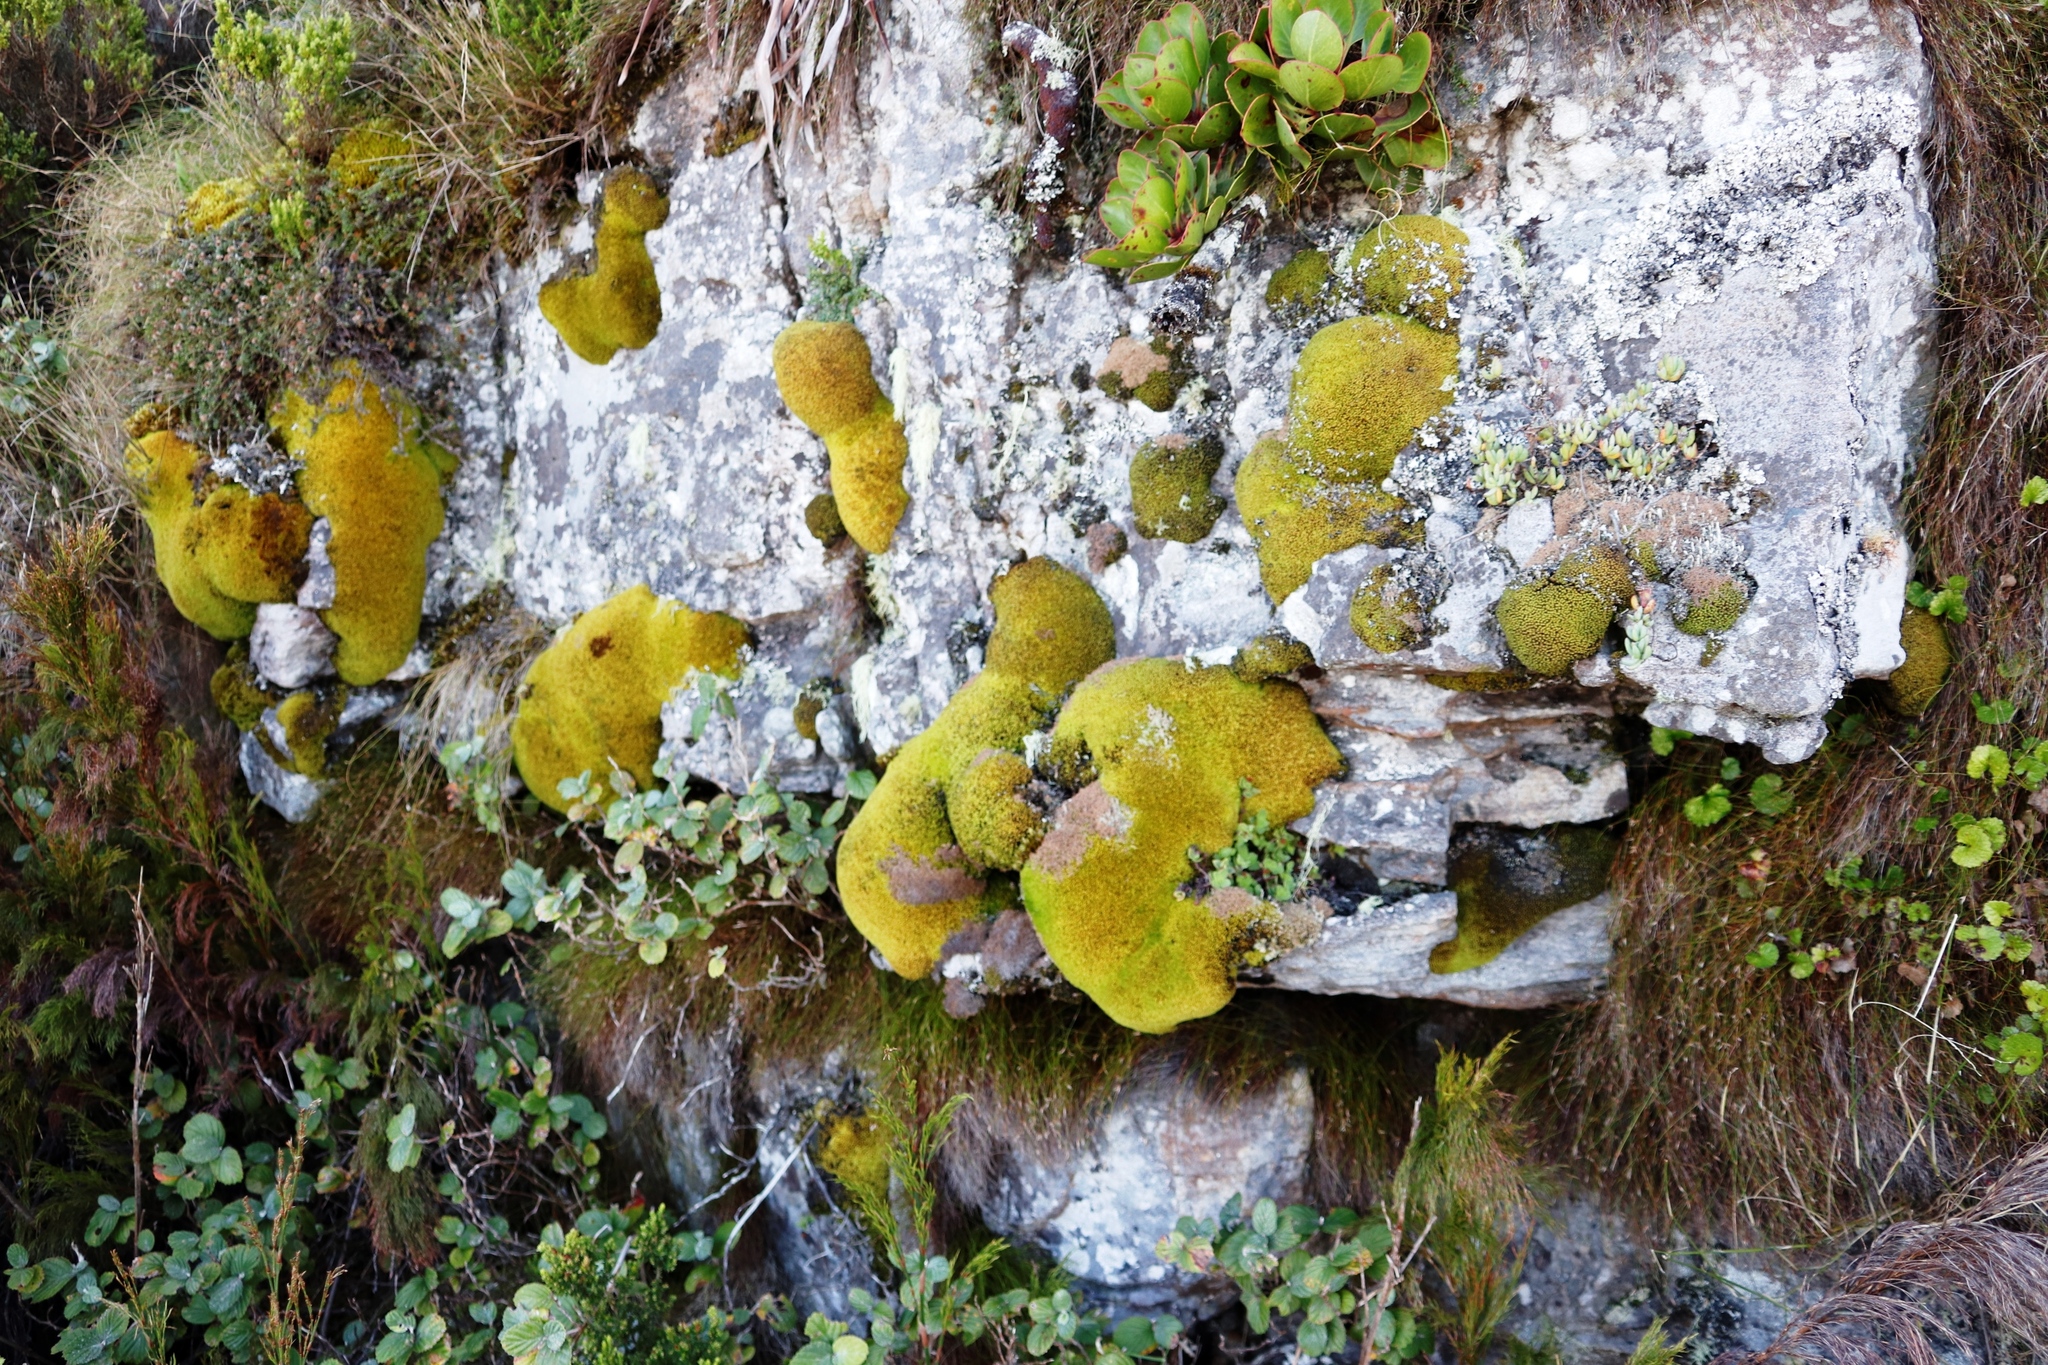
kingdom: Plantae
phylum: Bryophyta
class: Bryopsida
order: Dicranales
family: Hypodontiaceae
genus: Hypodontium
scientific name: Hypodontium pomiforme
